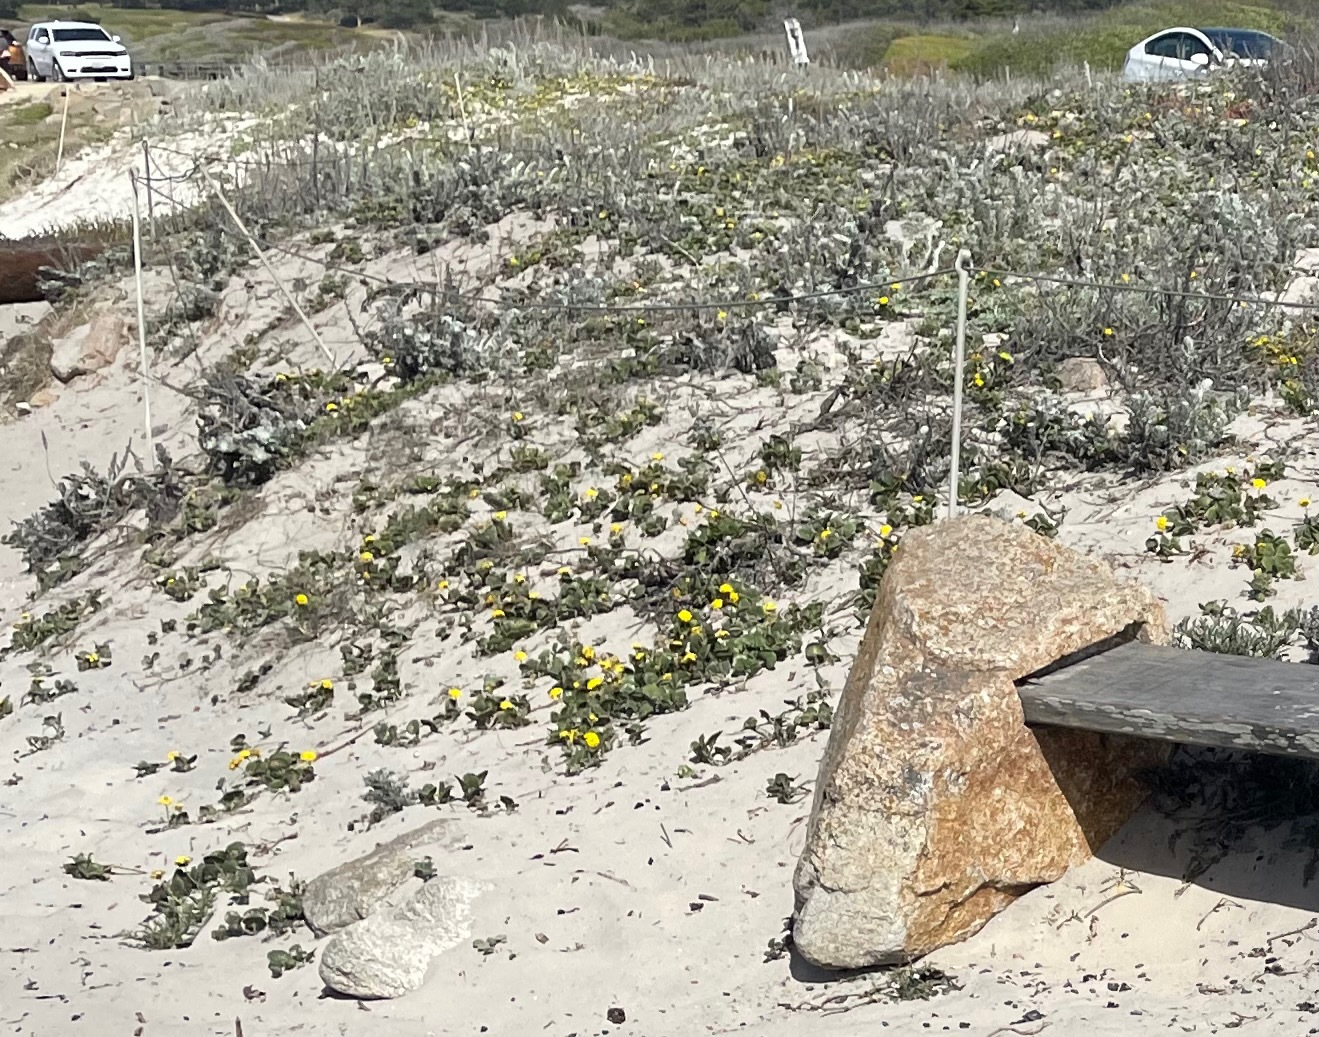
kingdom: Plantae
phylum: Tracheophyta
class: Magnoliopsida
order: Brassicales
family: Brassicaceae
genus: Erysimum
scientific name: Erysimum menziesii
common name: Menzies's wallflower
